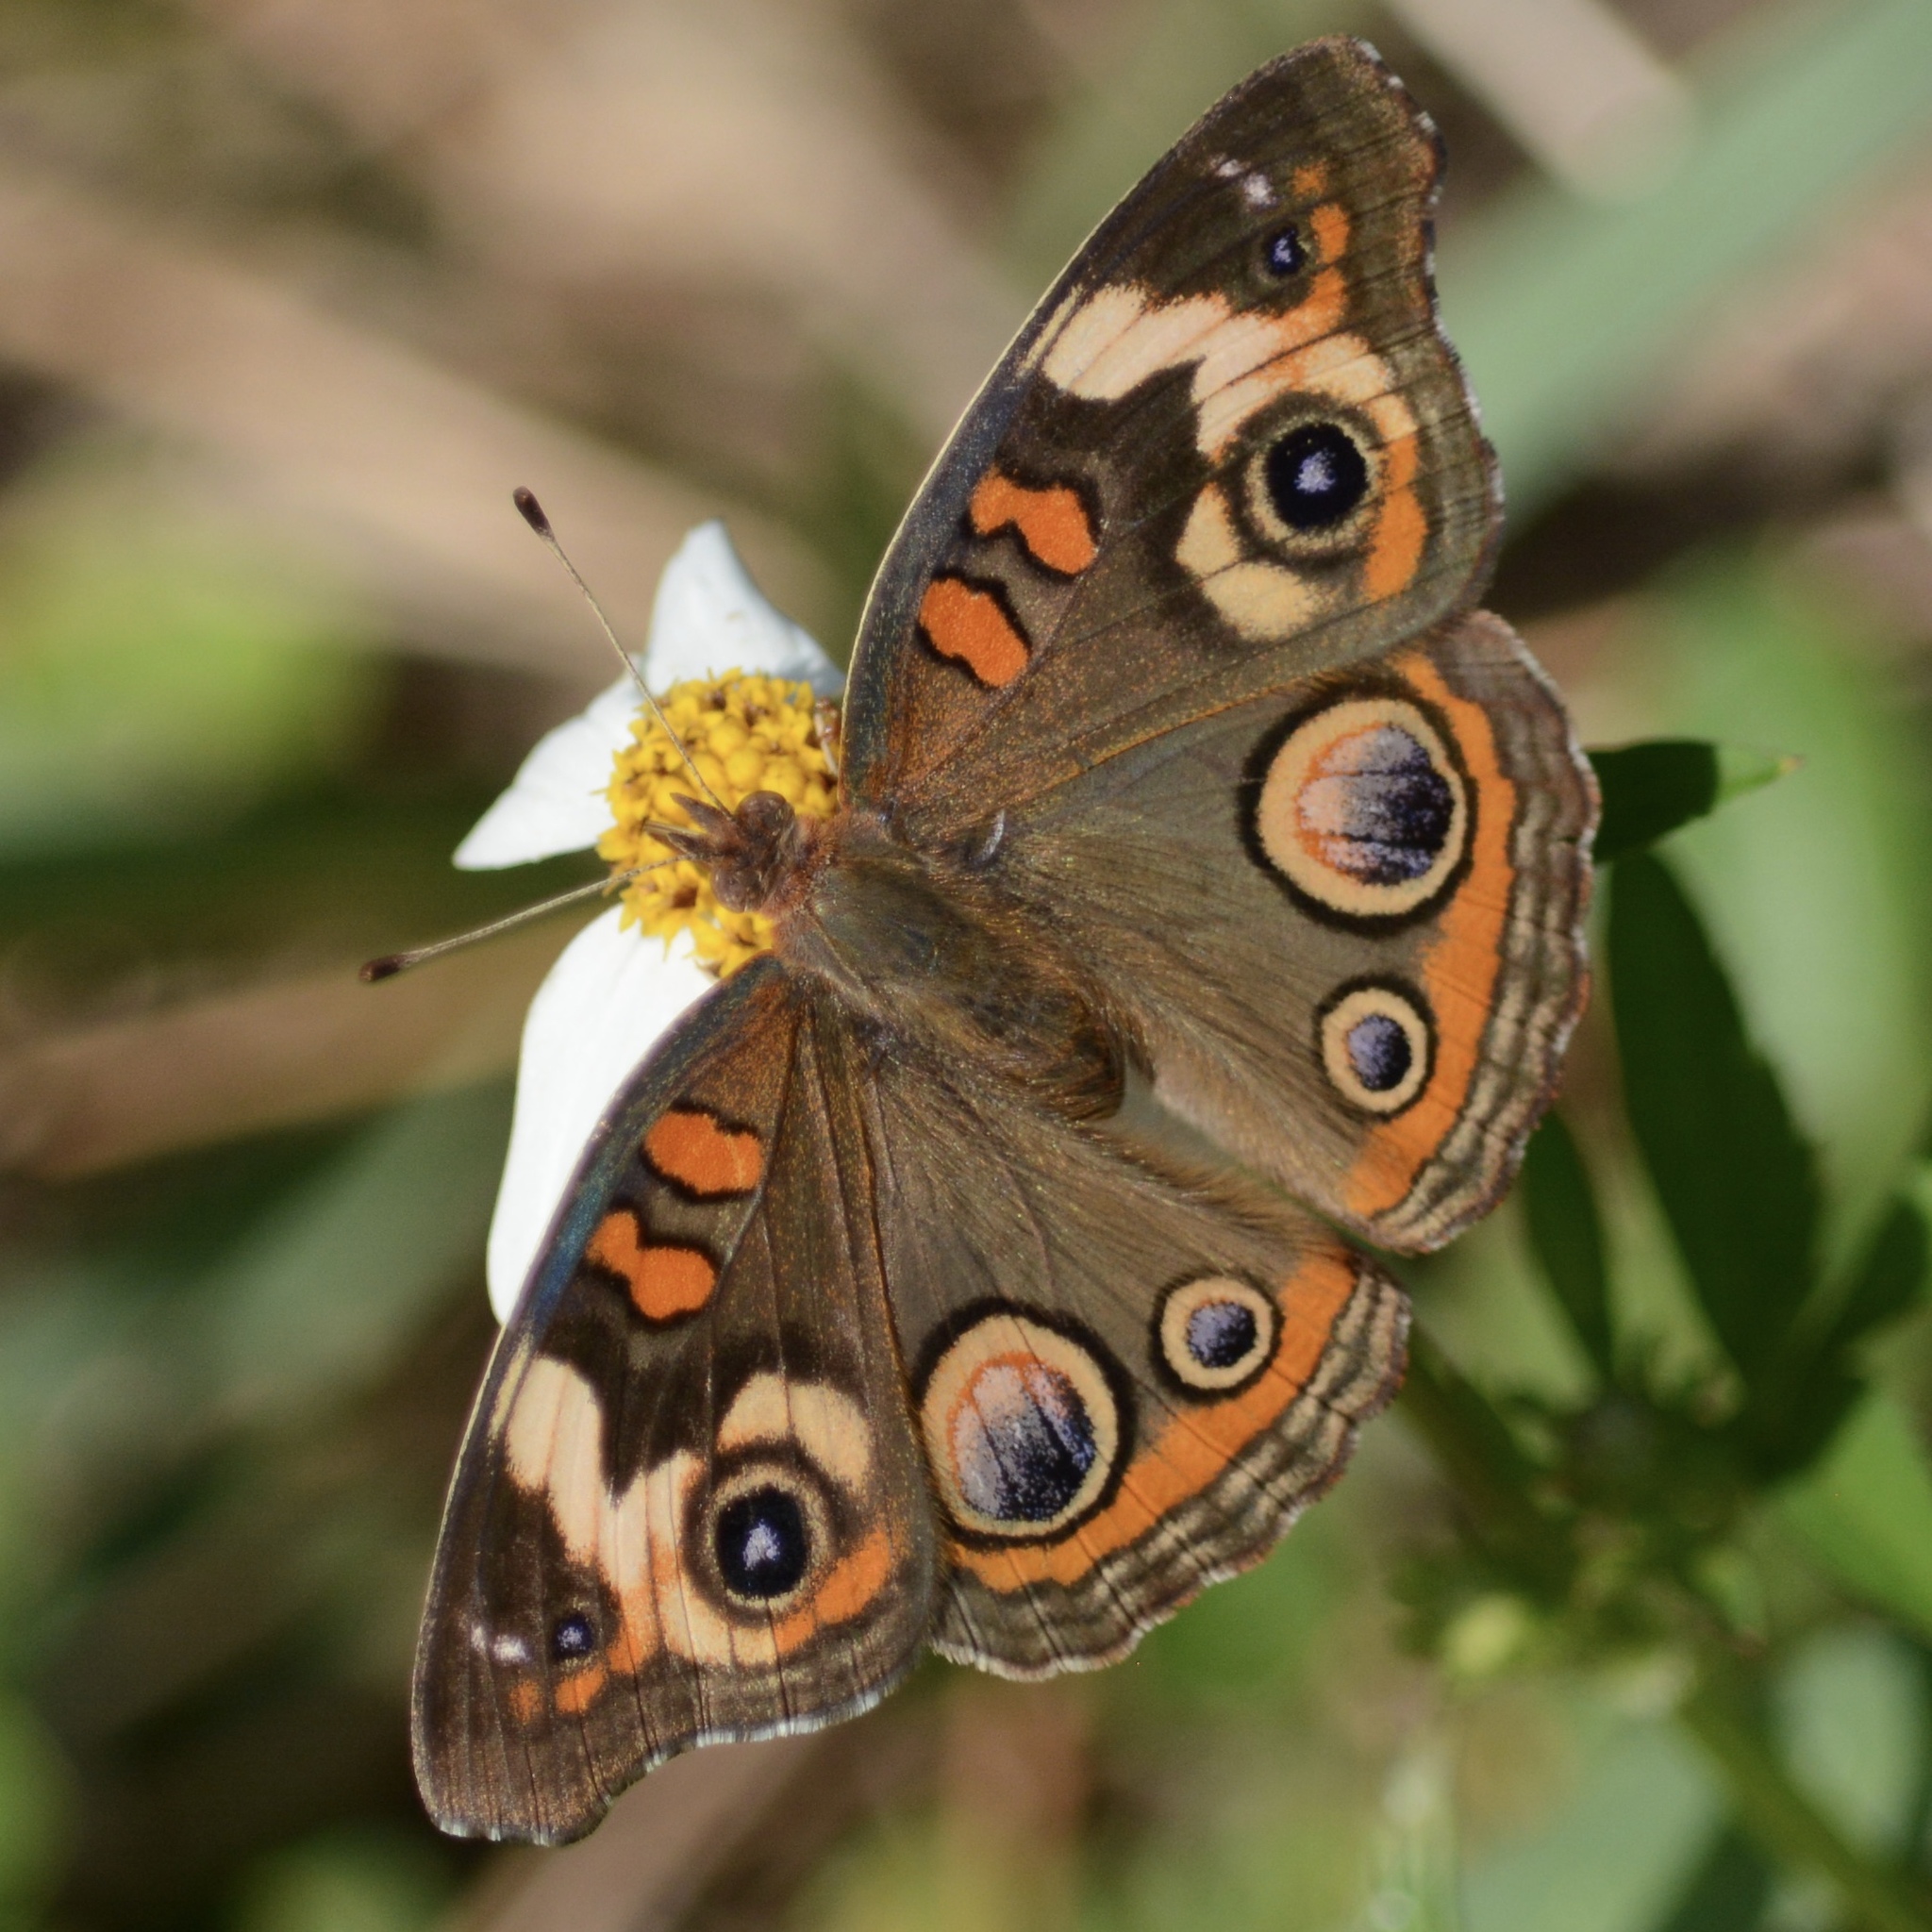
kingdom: Animalia
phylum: Arthropoda
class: Insecta
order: Lepidoptera
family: Nymphalidae
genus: Junonia
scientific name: Junonia coenia
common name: Common buckeye
